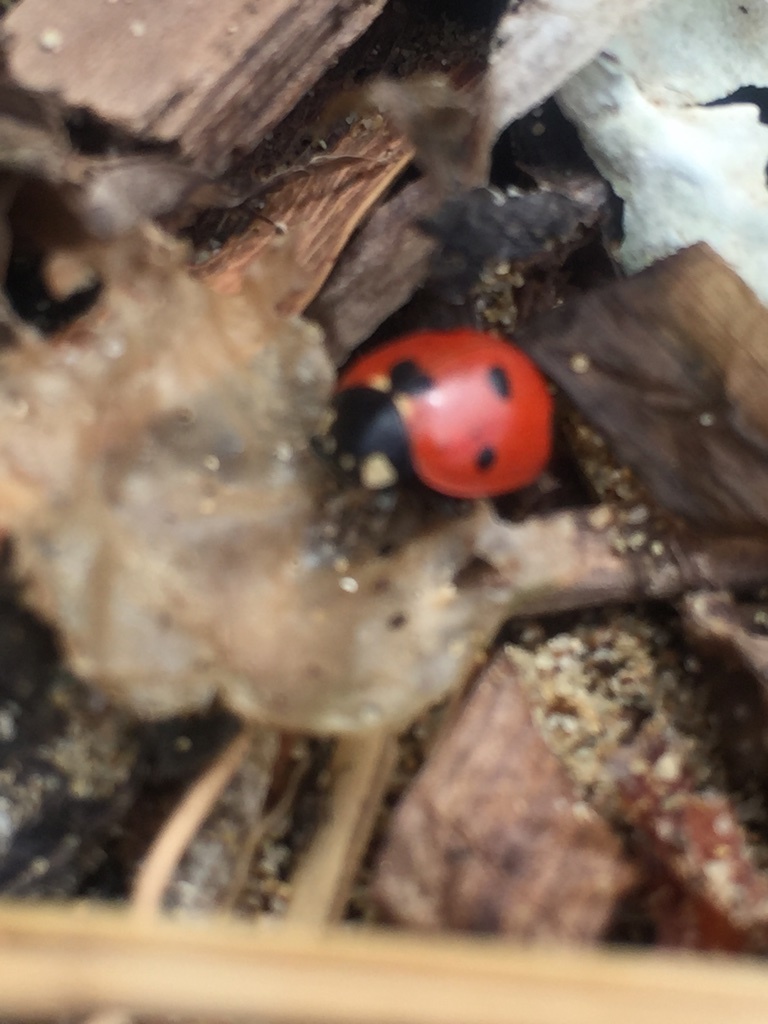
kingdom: Animalia
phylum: Arthropoda
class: Insecta
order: Coleoptera
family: Coccinellidae
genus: Coccinella
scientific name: Coccinella septempunctata
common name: Sevenspotted lady beetle
